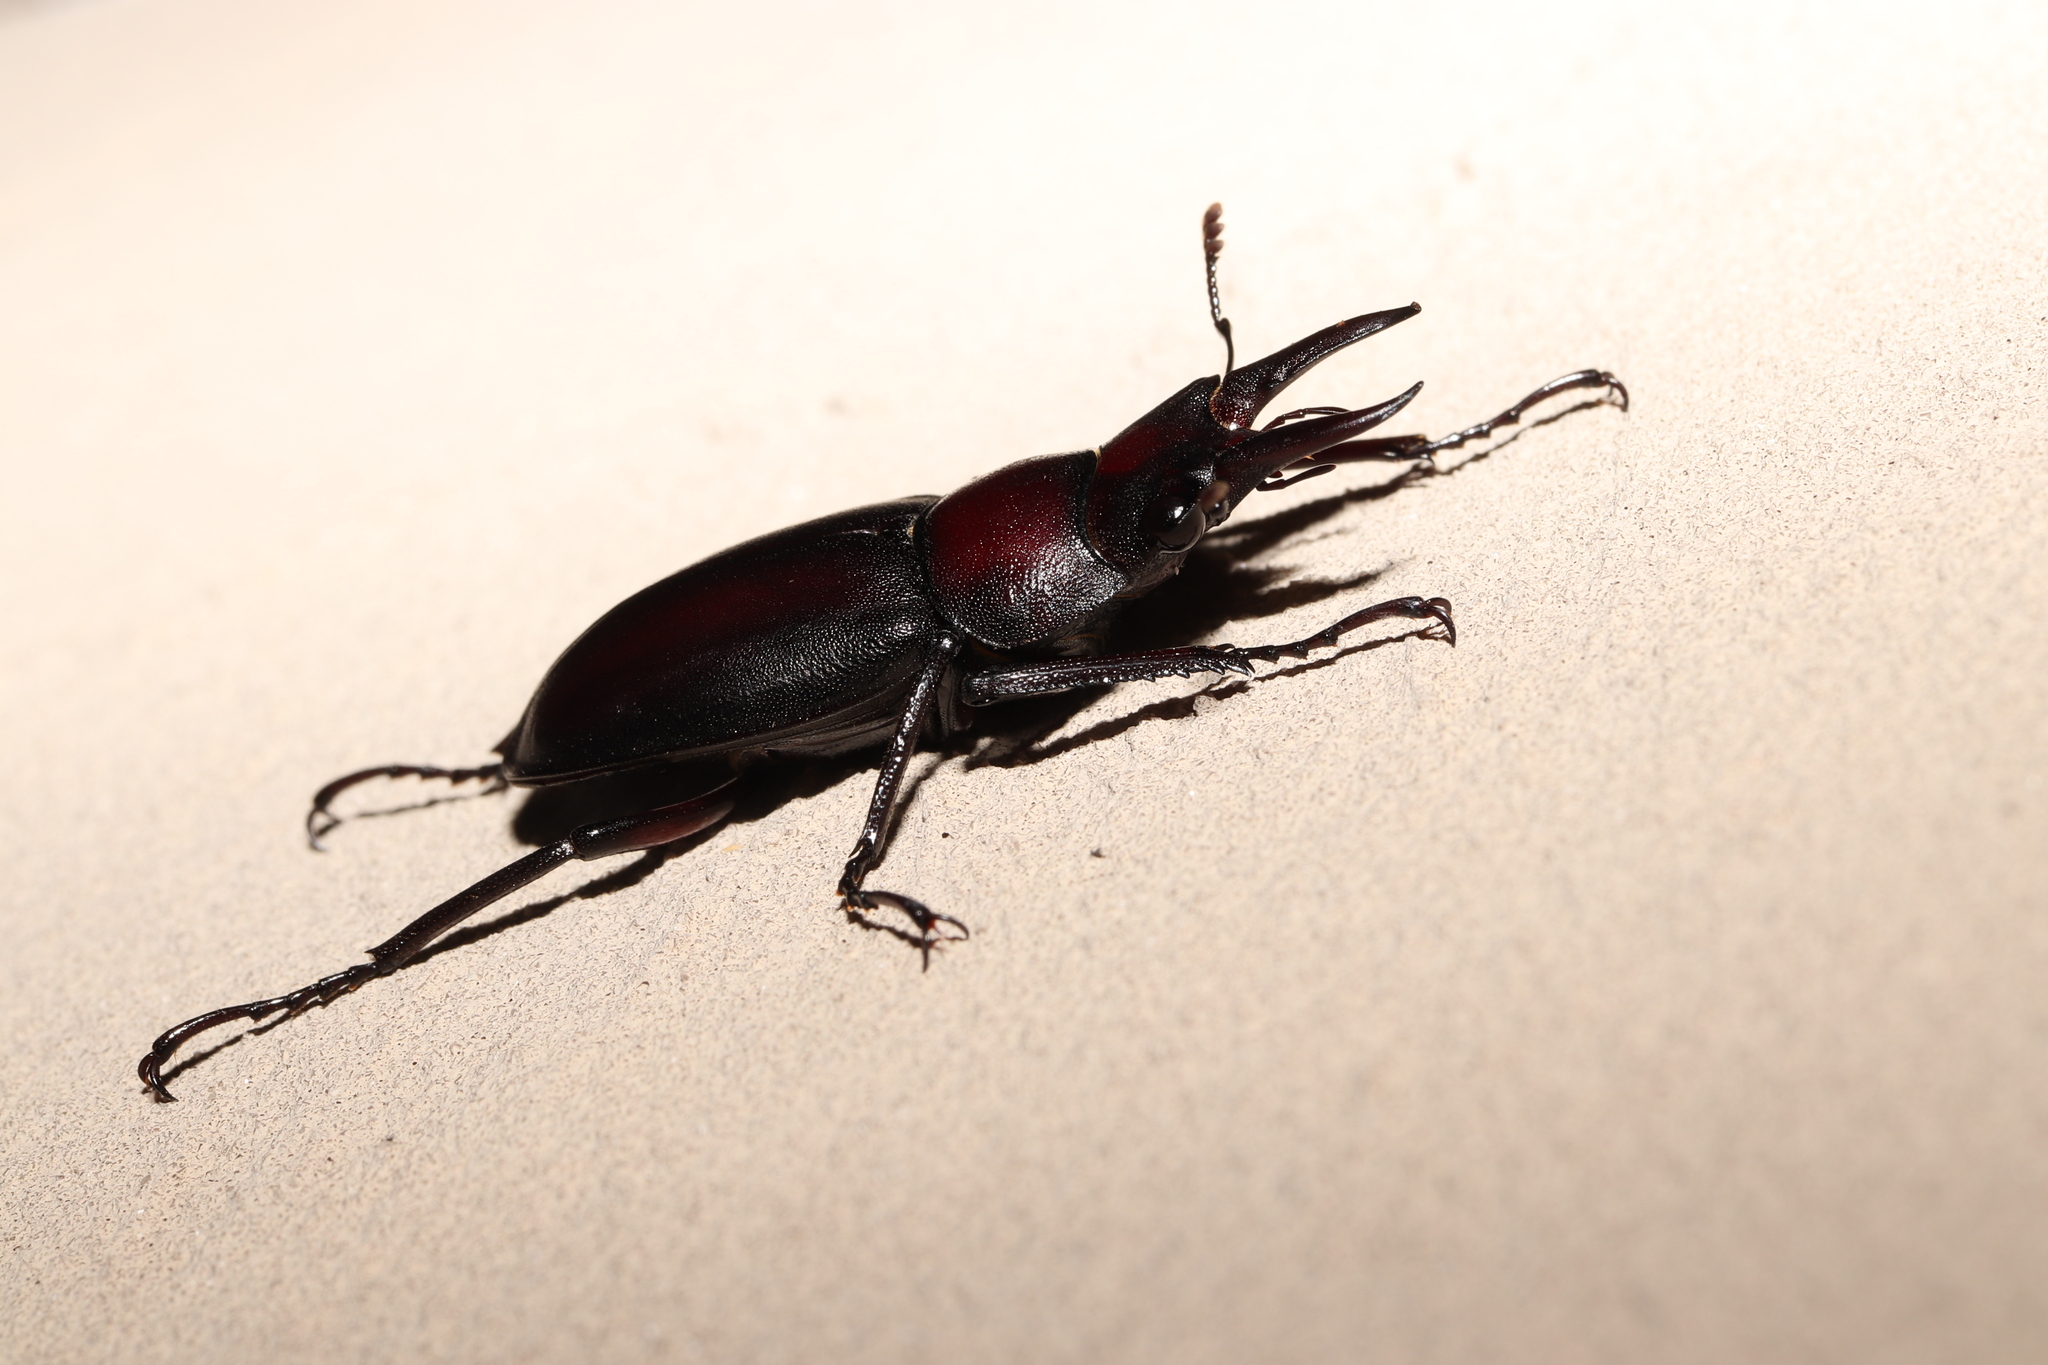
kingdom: Animalia
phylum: Arthropoda
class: Insecta
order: Coleoptera
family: Lucanidae
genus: Prosopocoilus
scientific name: Prosopocoilus inclinatus
